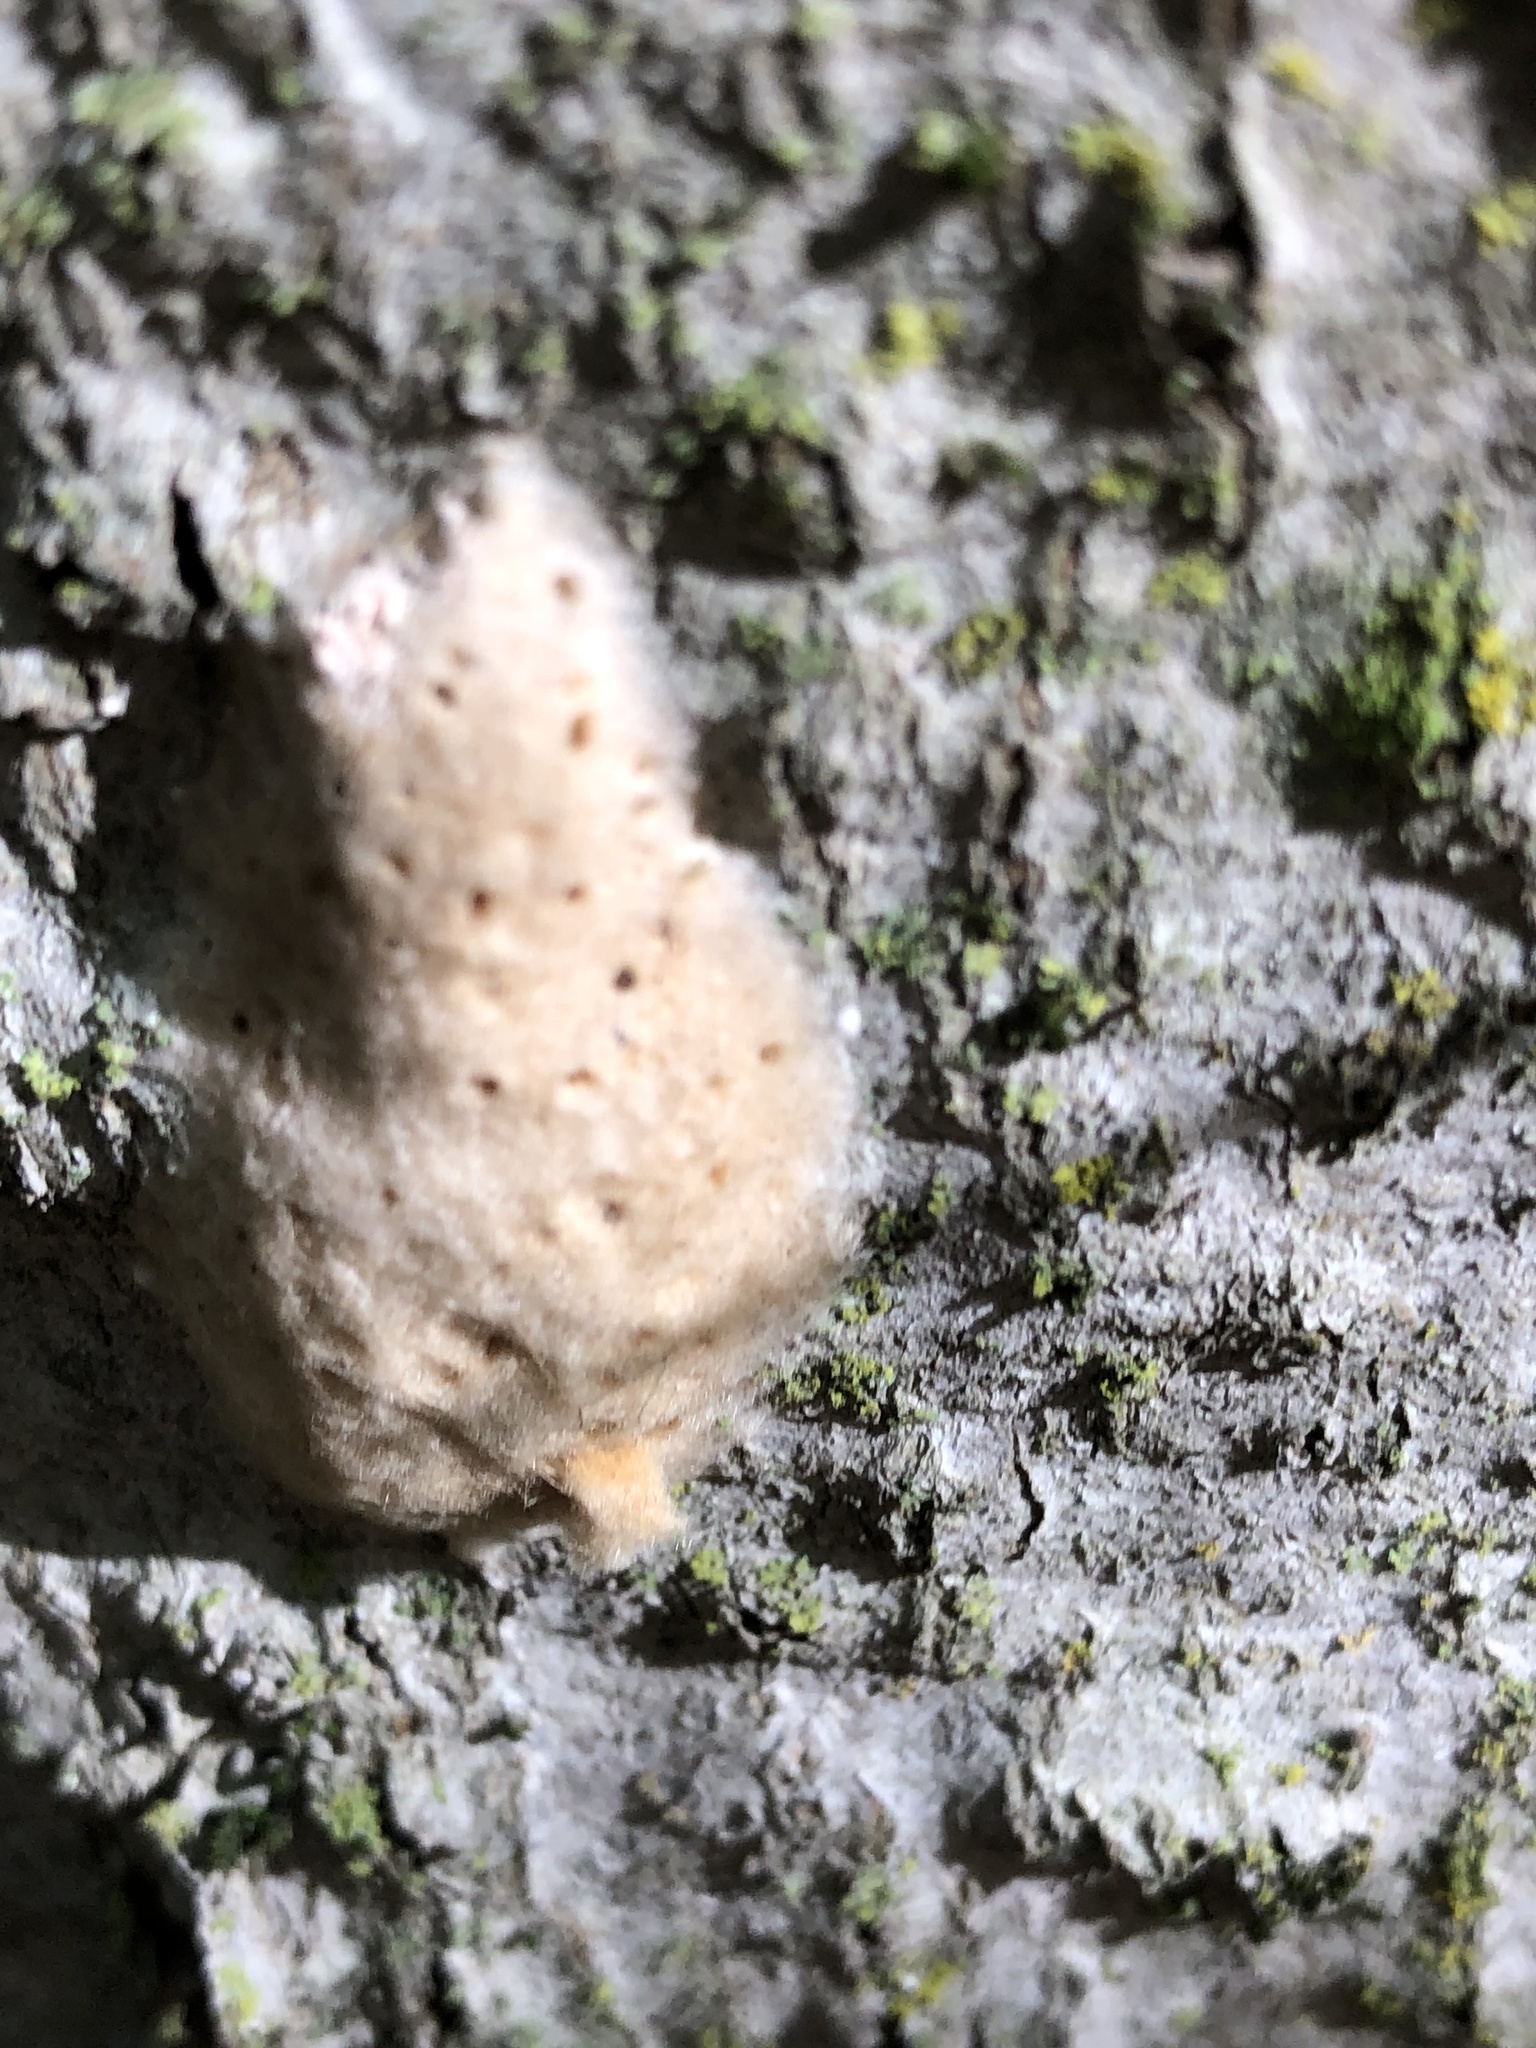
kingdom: Animalia
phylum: Arthropoda
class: Insecta
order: Lepidoptera
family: Erebidae
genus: Lymantria
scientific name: Lymantria dispar
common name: Gypsy moth
